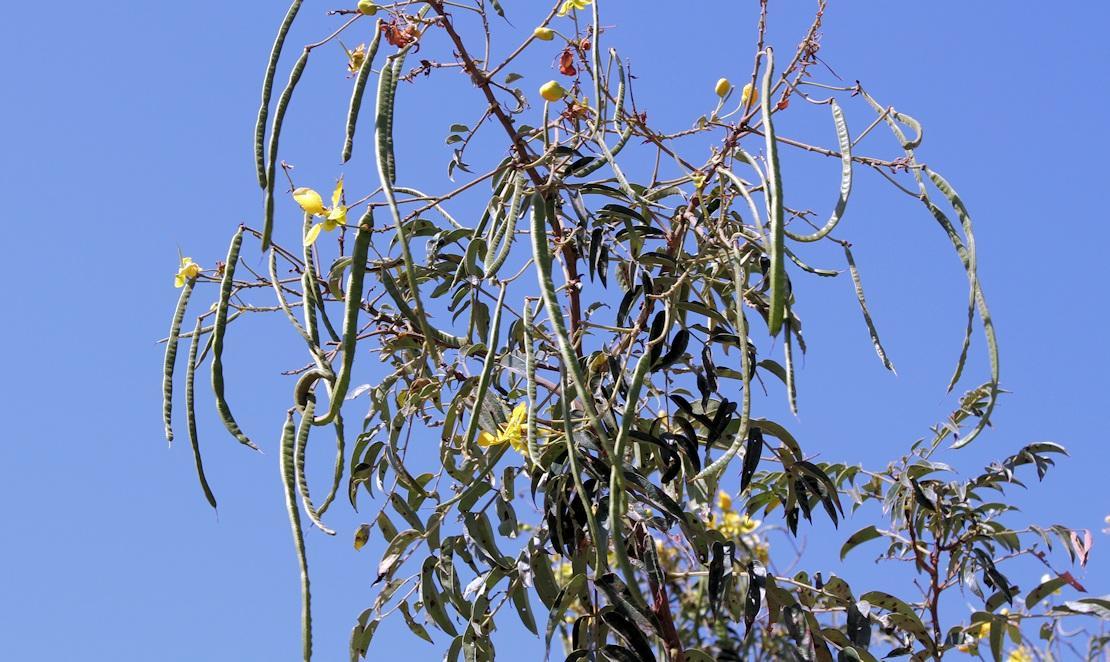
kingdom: Plantae
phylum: Tracheophyta
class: Magnoliopsida
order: Fabales
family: Fabaceae
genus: Senna
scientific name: Senna petersiana
